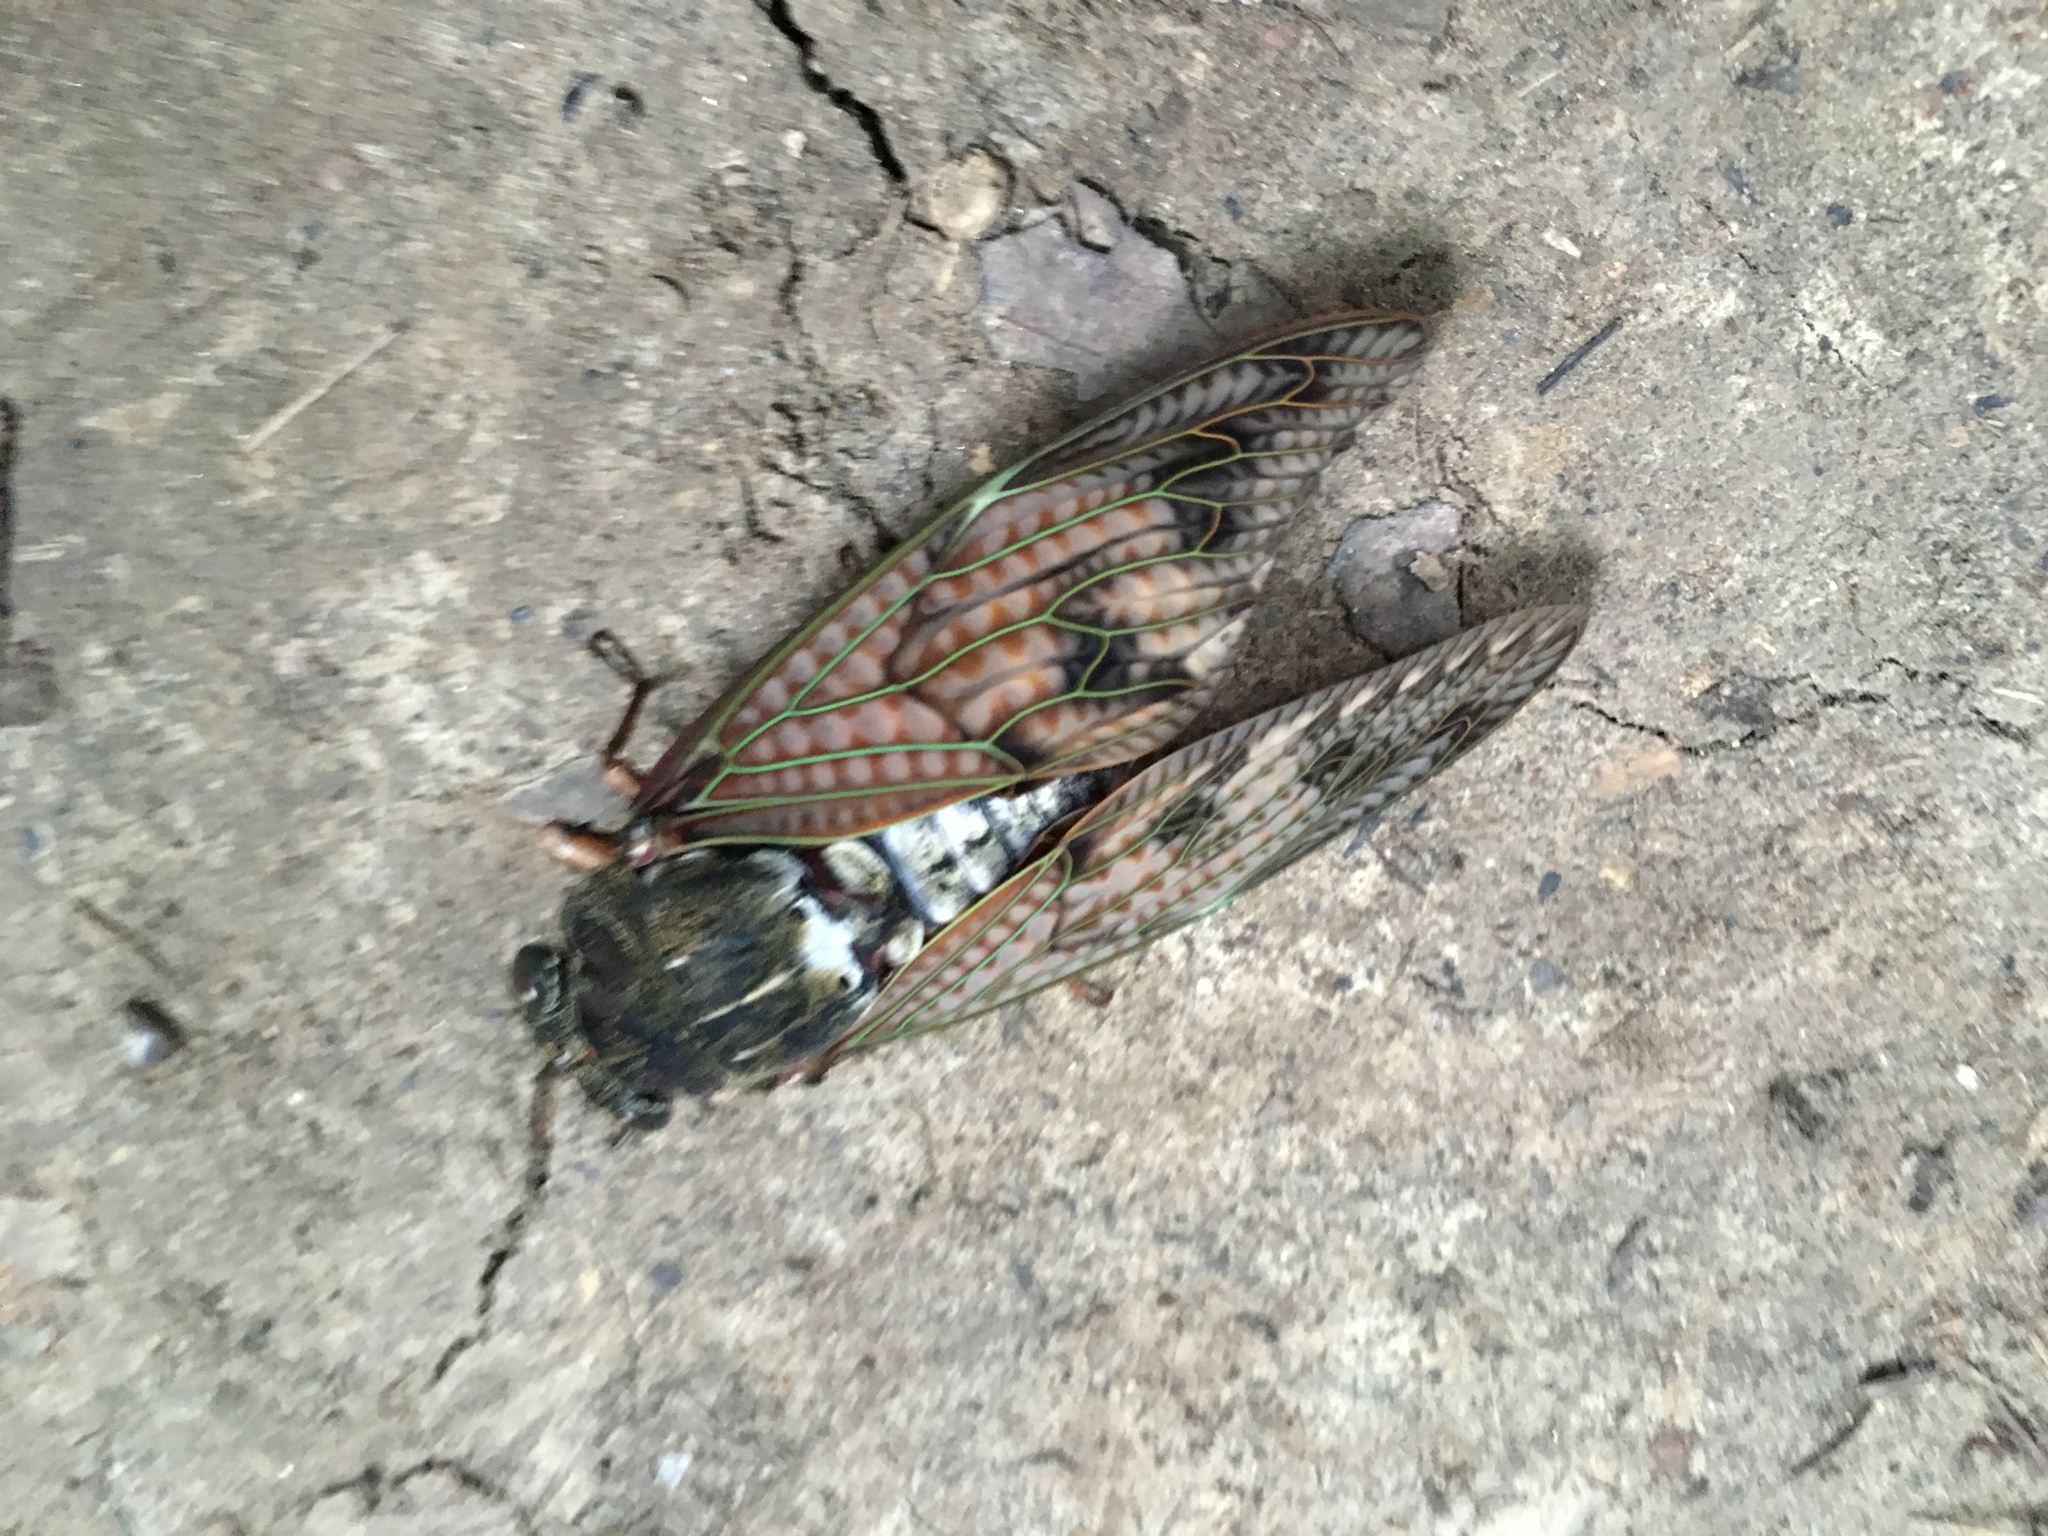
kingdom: Animalia
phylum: Arthropoda
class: Insecta
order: Hemiptera
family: Cicadidae
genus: Graptopsaltria
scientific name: Graptopsaltria nigrofuscata
